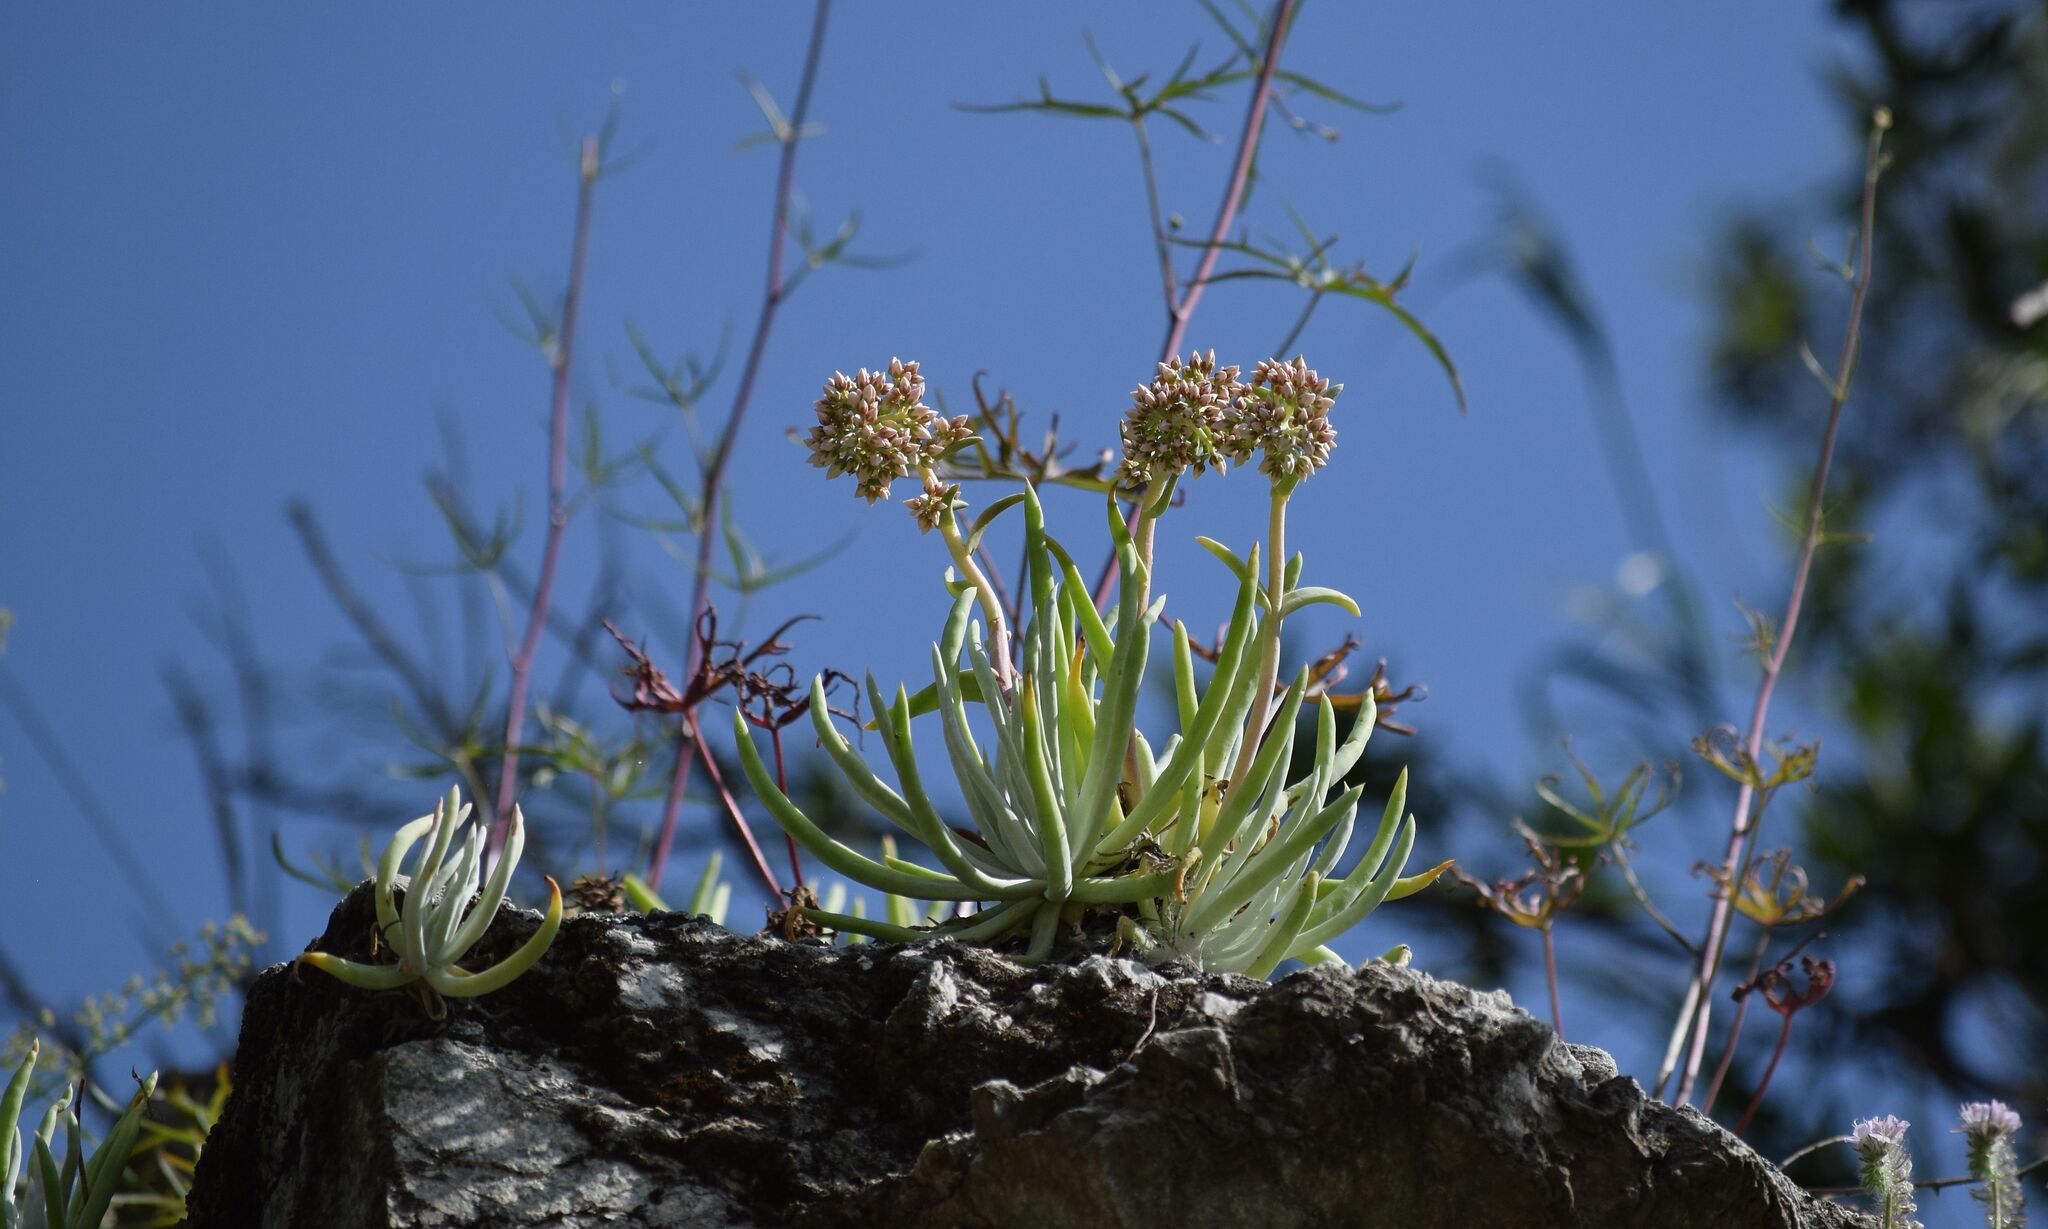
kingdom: Plantae
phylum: Tracheophyta
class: Magnoliopsida
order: Saxifragales
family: Crassulaceae
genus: Dudleya
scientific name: Dudleya densiflora
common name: San gabriel mountains dudleya
